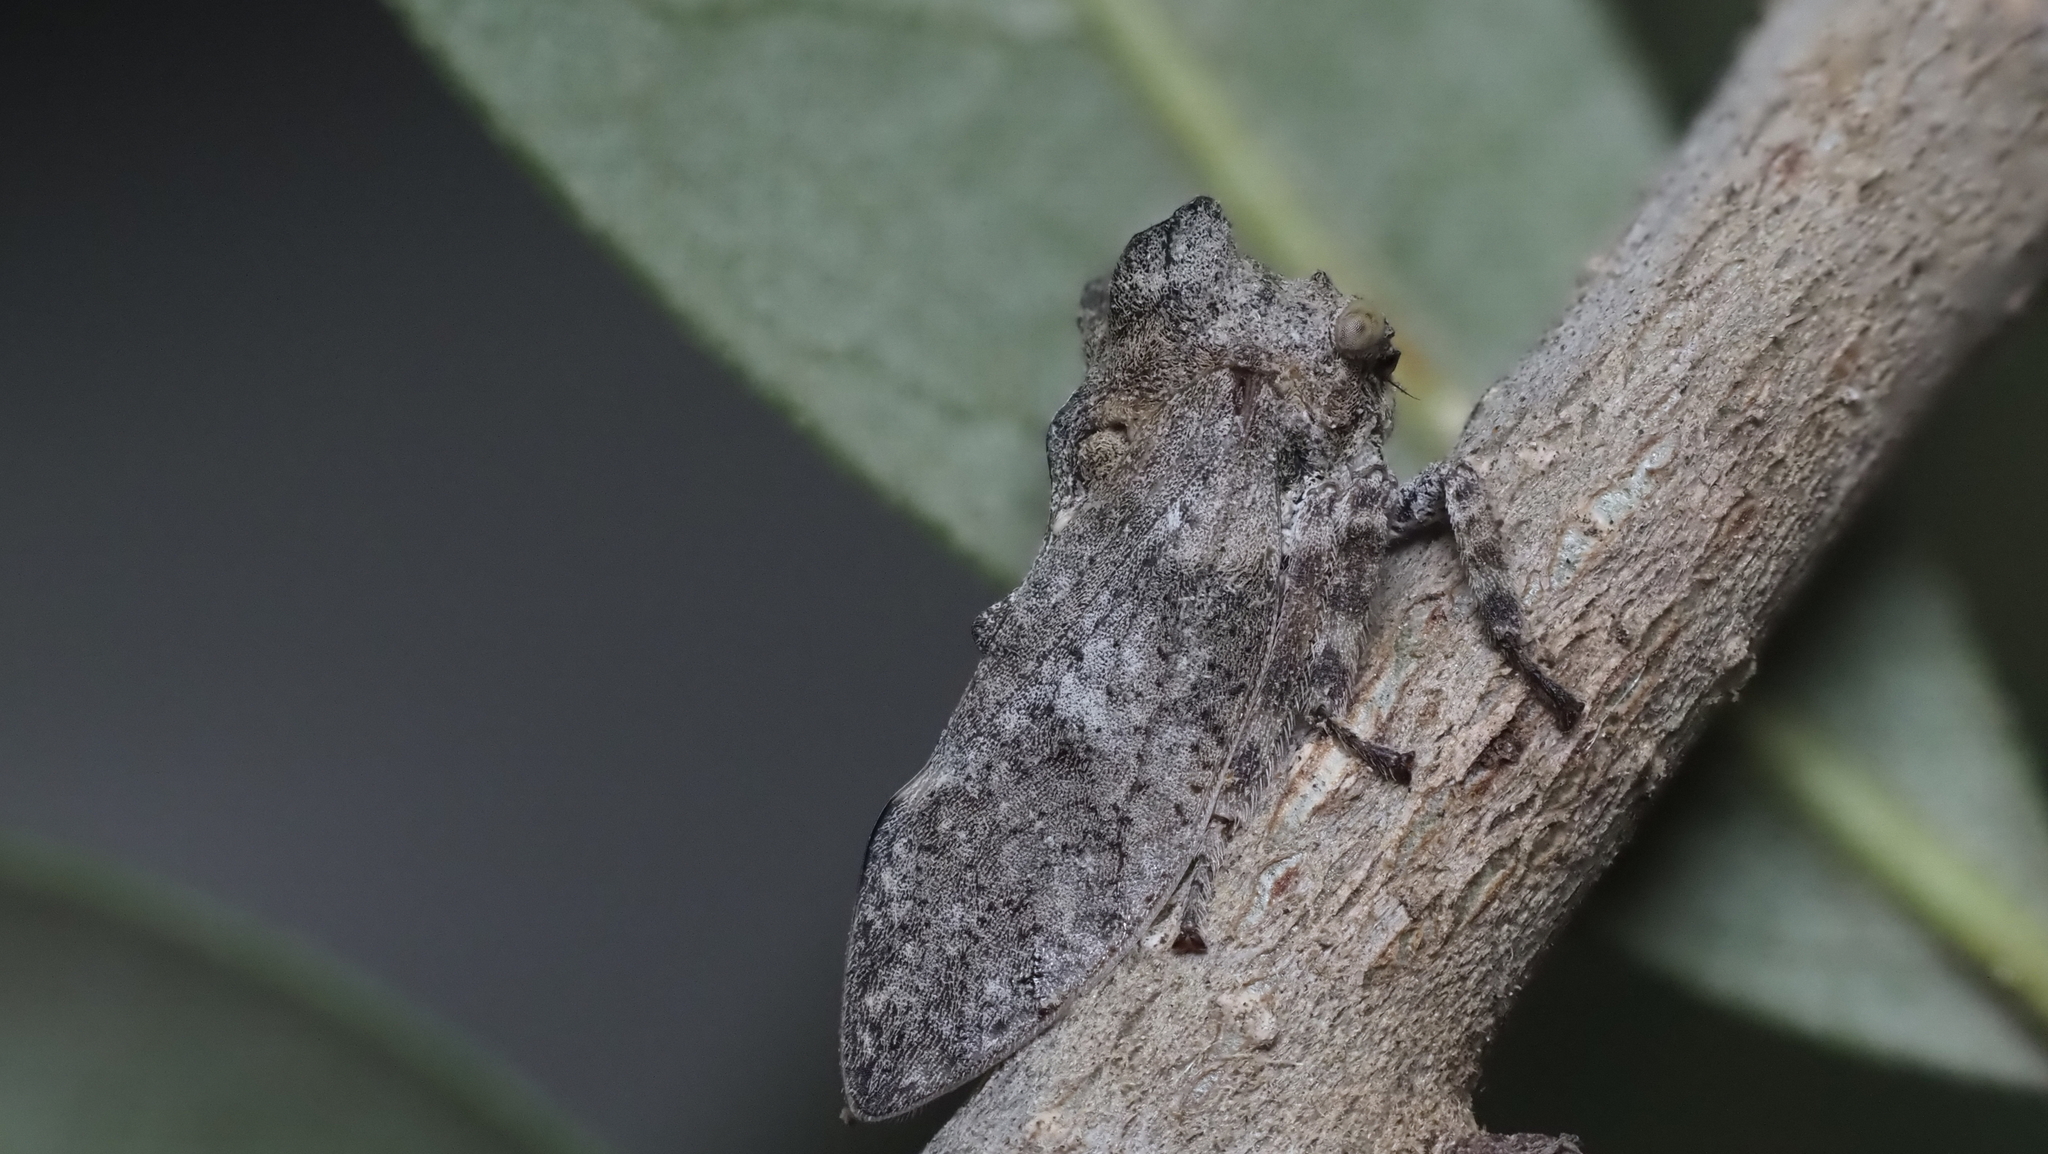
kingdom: Animalia
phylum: Arthropoda
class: Insecta
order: Hemiptera
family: Membracidae
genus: Microcentrus
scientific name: Microcentrus perdita
